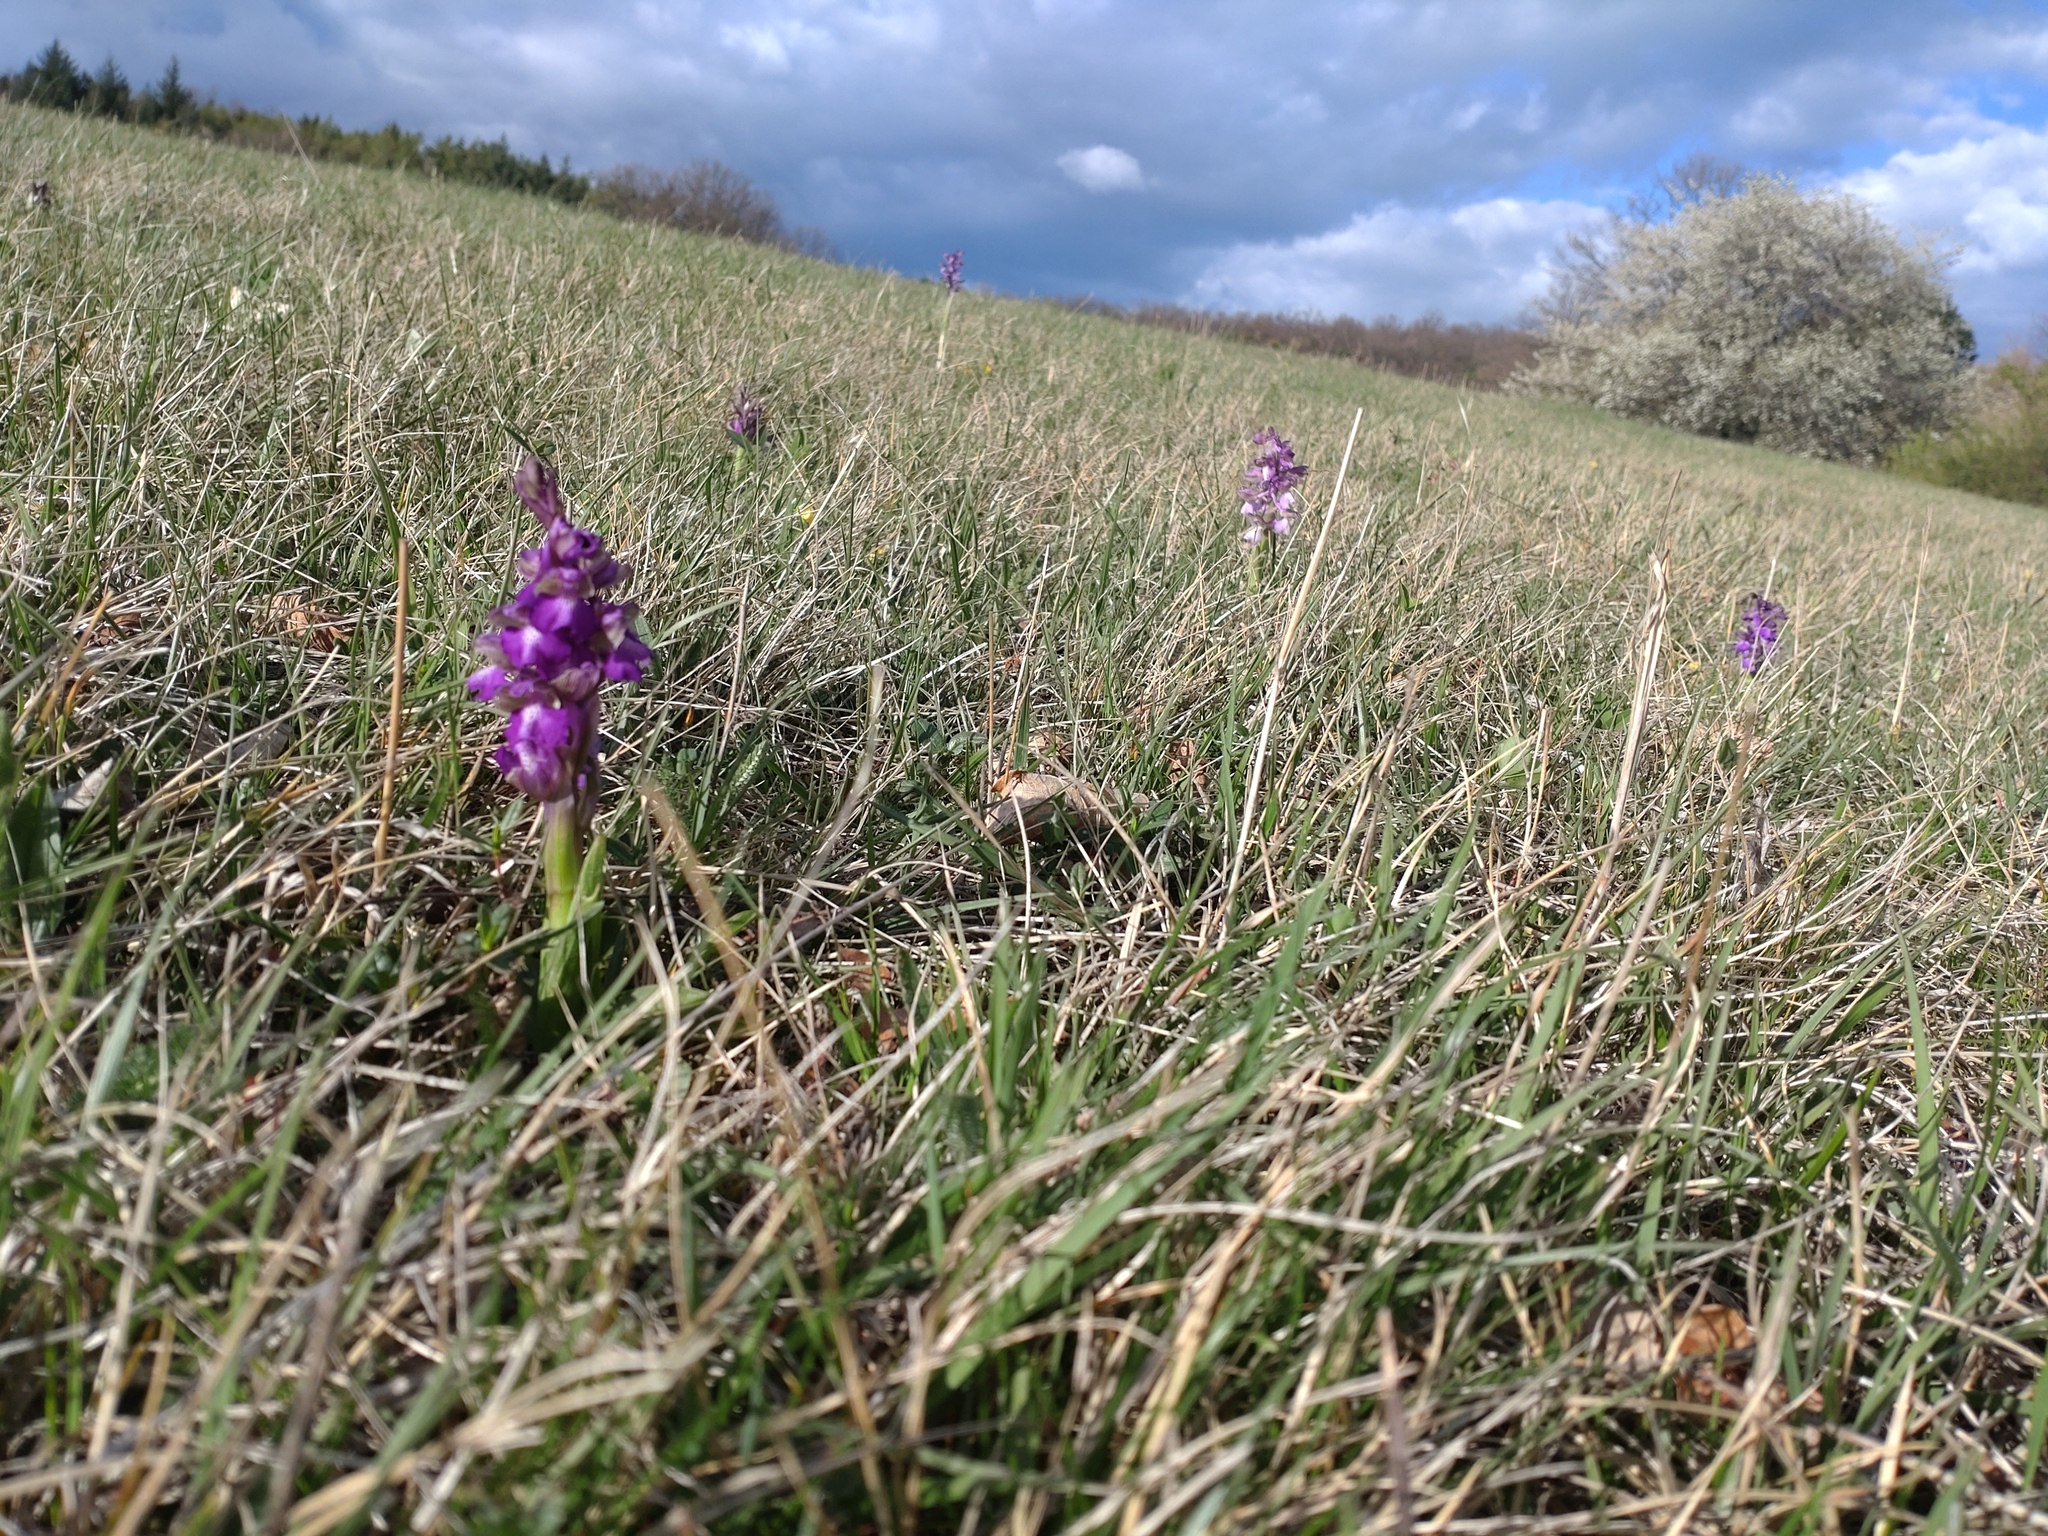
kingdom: Plantae
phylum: Tracheophyta
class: Liliopsida
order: Asparagales
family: Orchidaceae
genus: Anacamptis
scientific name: Anacamptis morio
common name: Green-winged orchid
